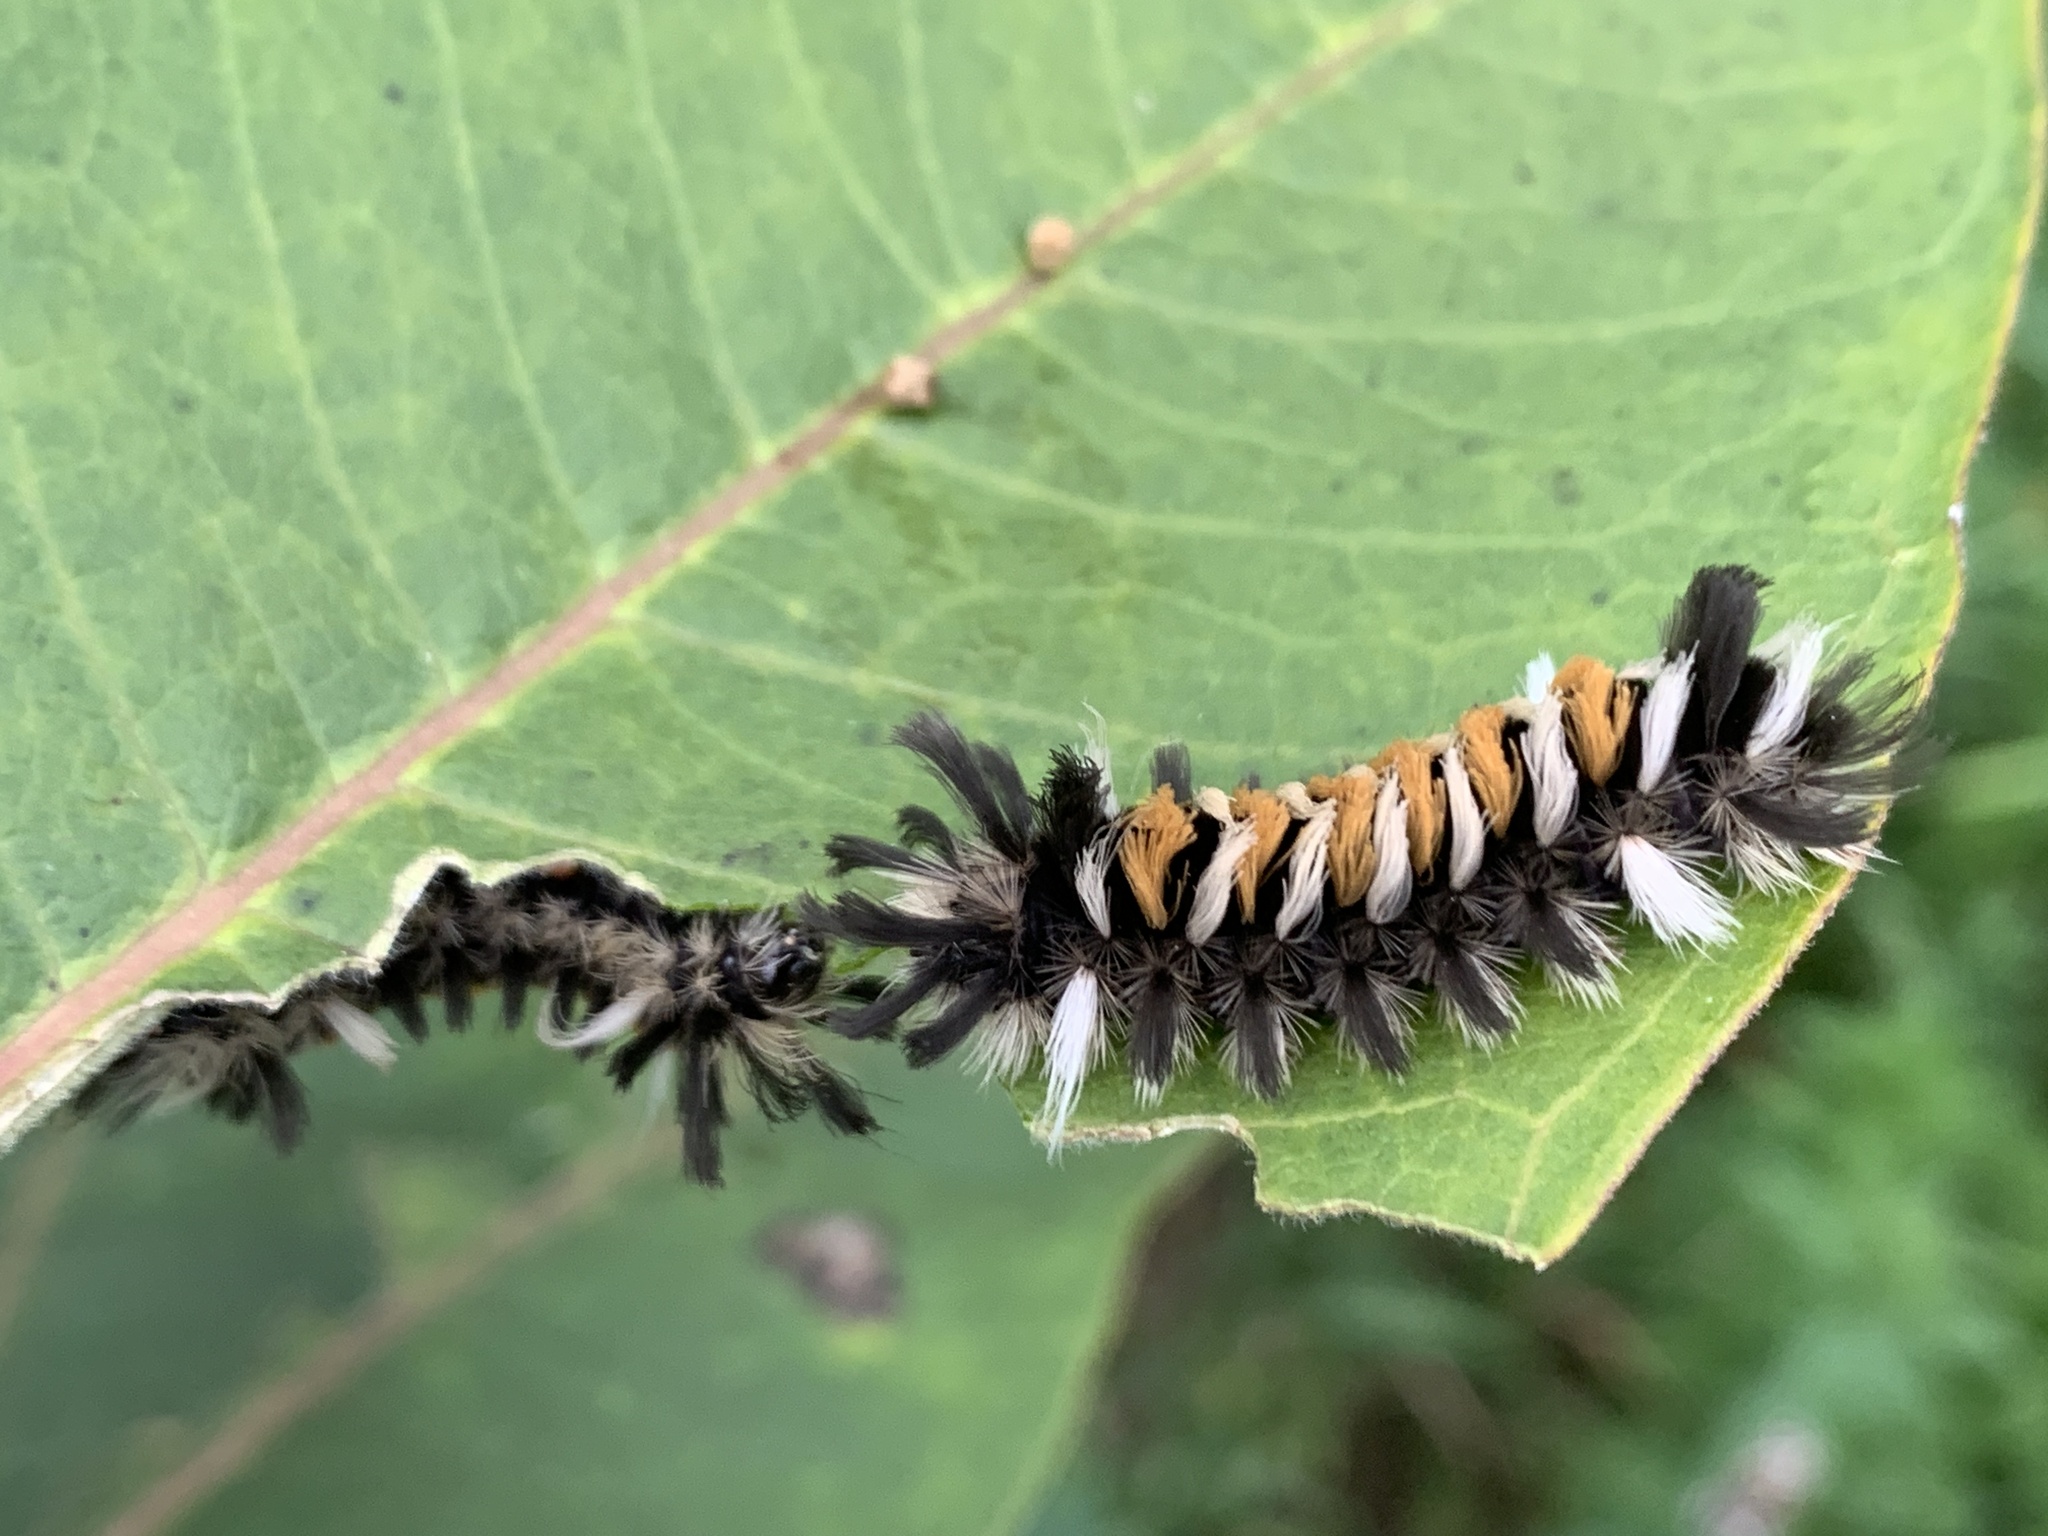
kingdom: Animalia
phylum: Arthropoda
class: Insecta
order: Lepidoptera
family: Erebidae
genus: Euchaetes
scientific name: Euchaetes egle
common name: Milkweed tussock moth
